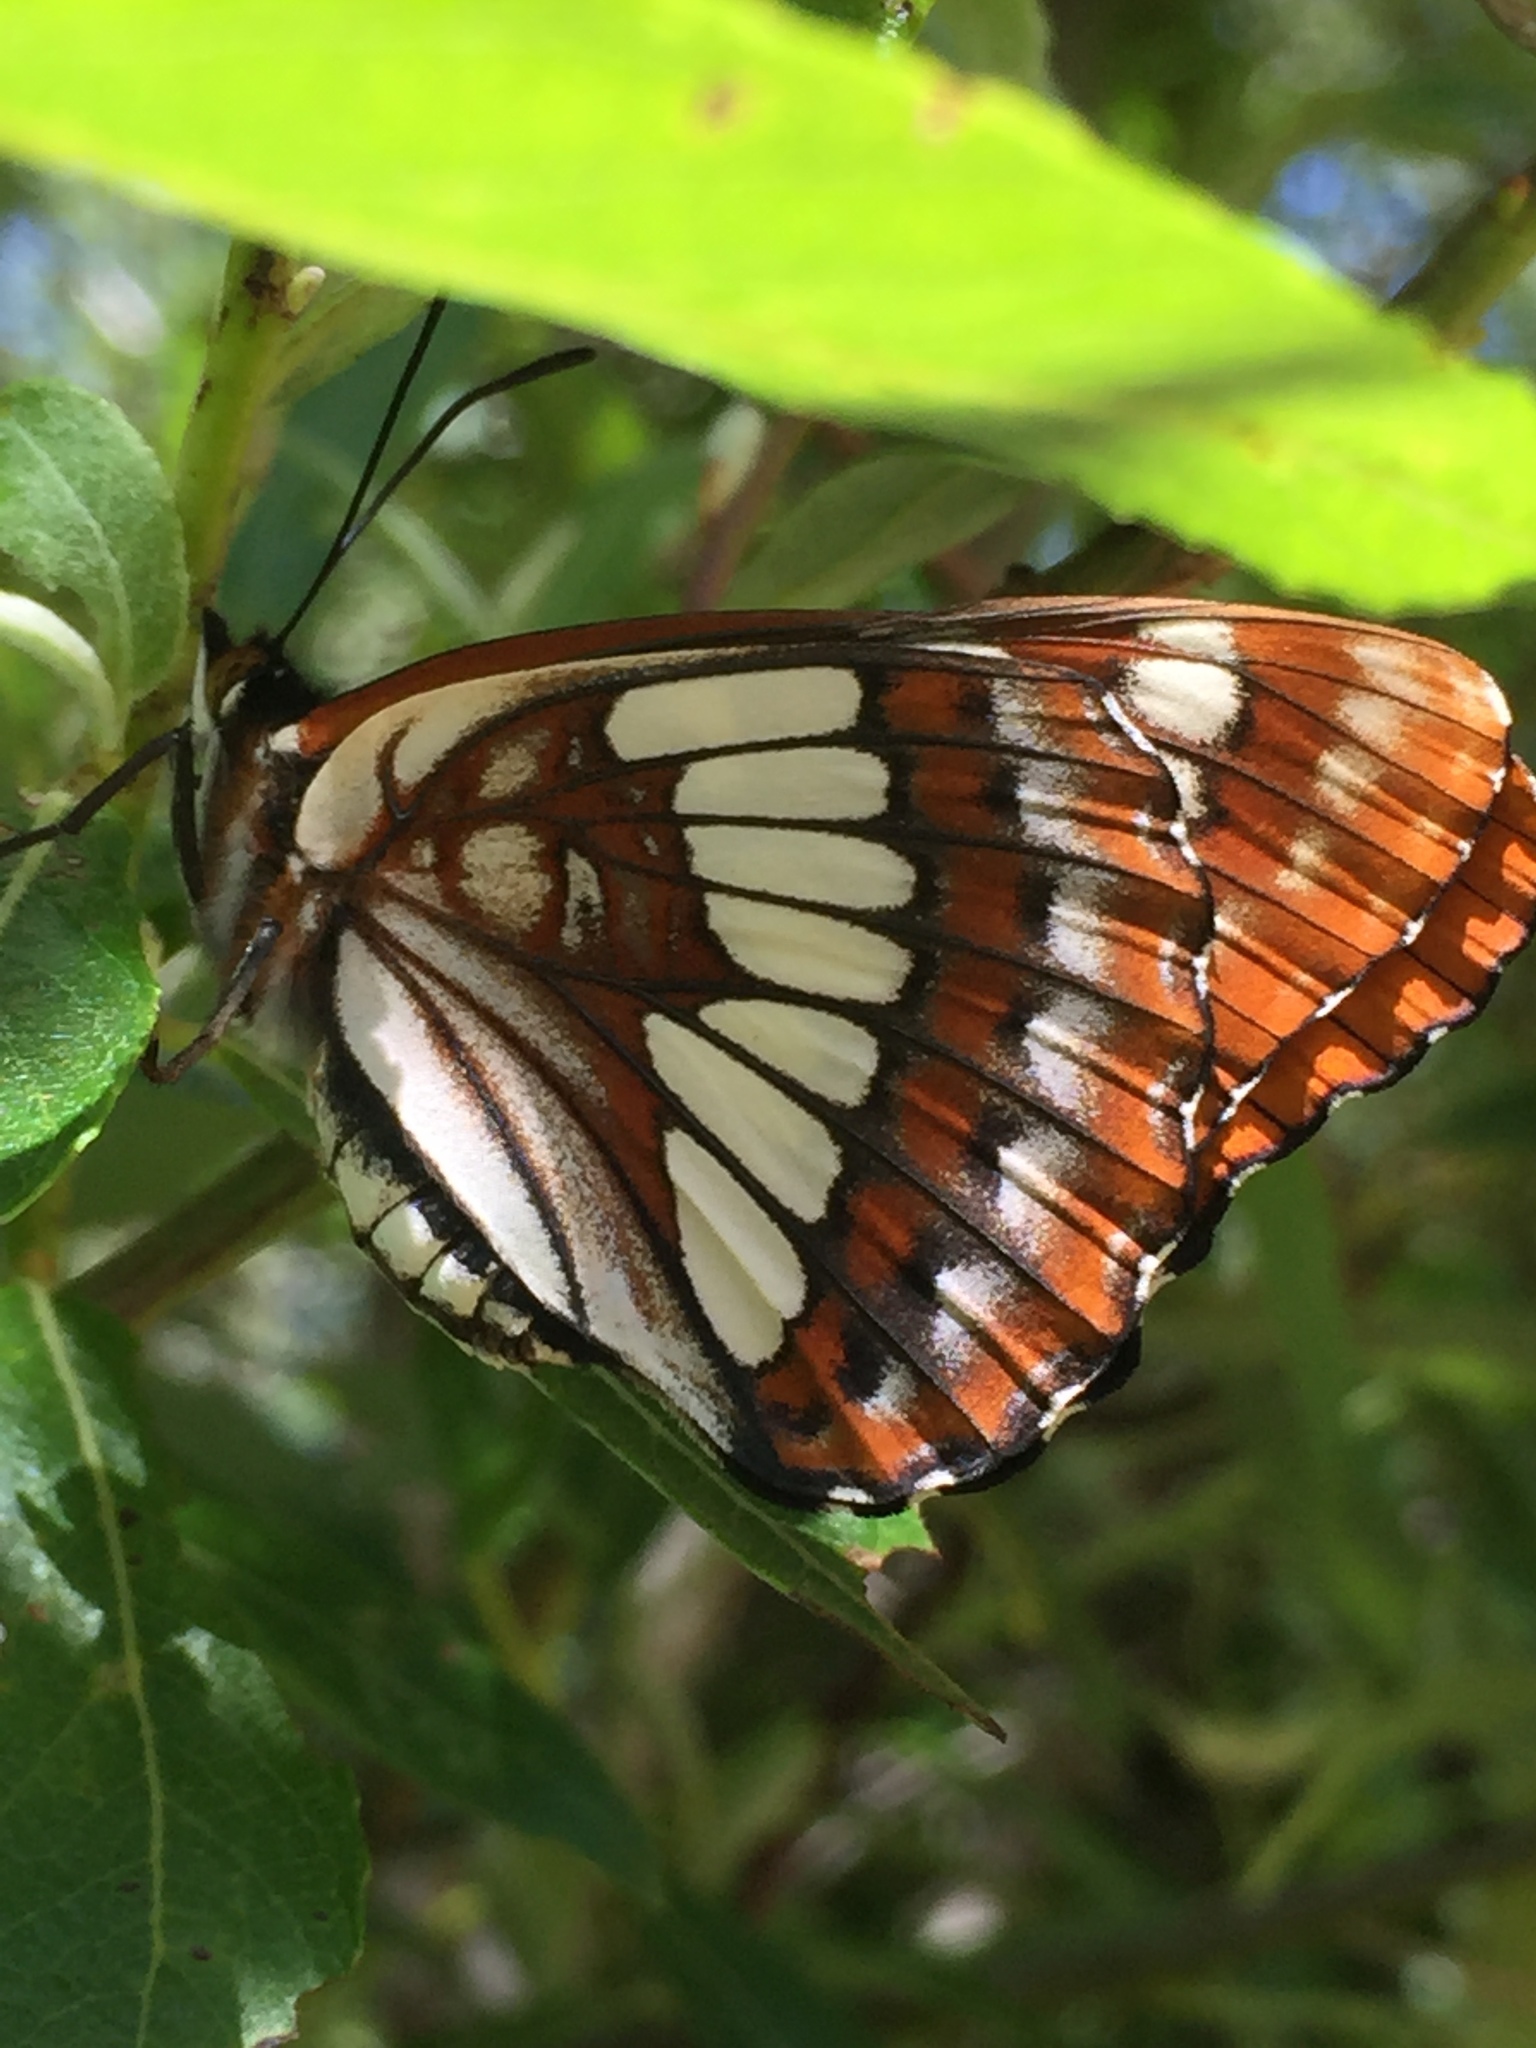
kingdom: Animalia
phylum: Arthropoda
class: Insecta
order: Lepidoptera
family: Nymphalidae
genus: Limenitis
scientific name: Limenitis lorquini
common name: Lorquin's admiral
